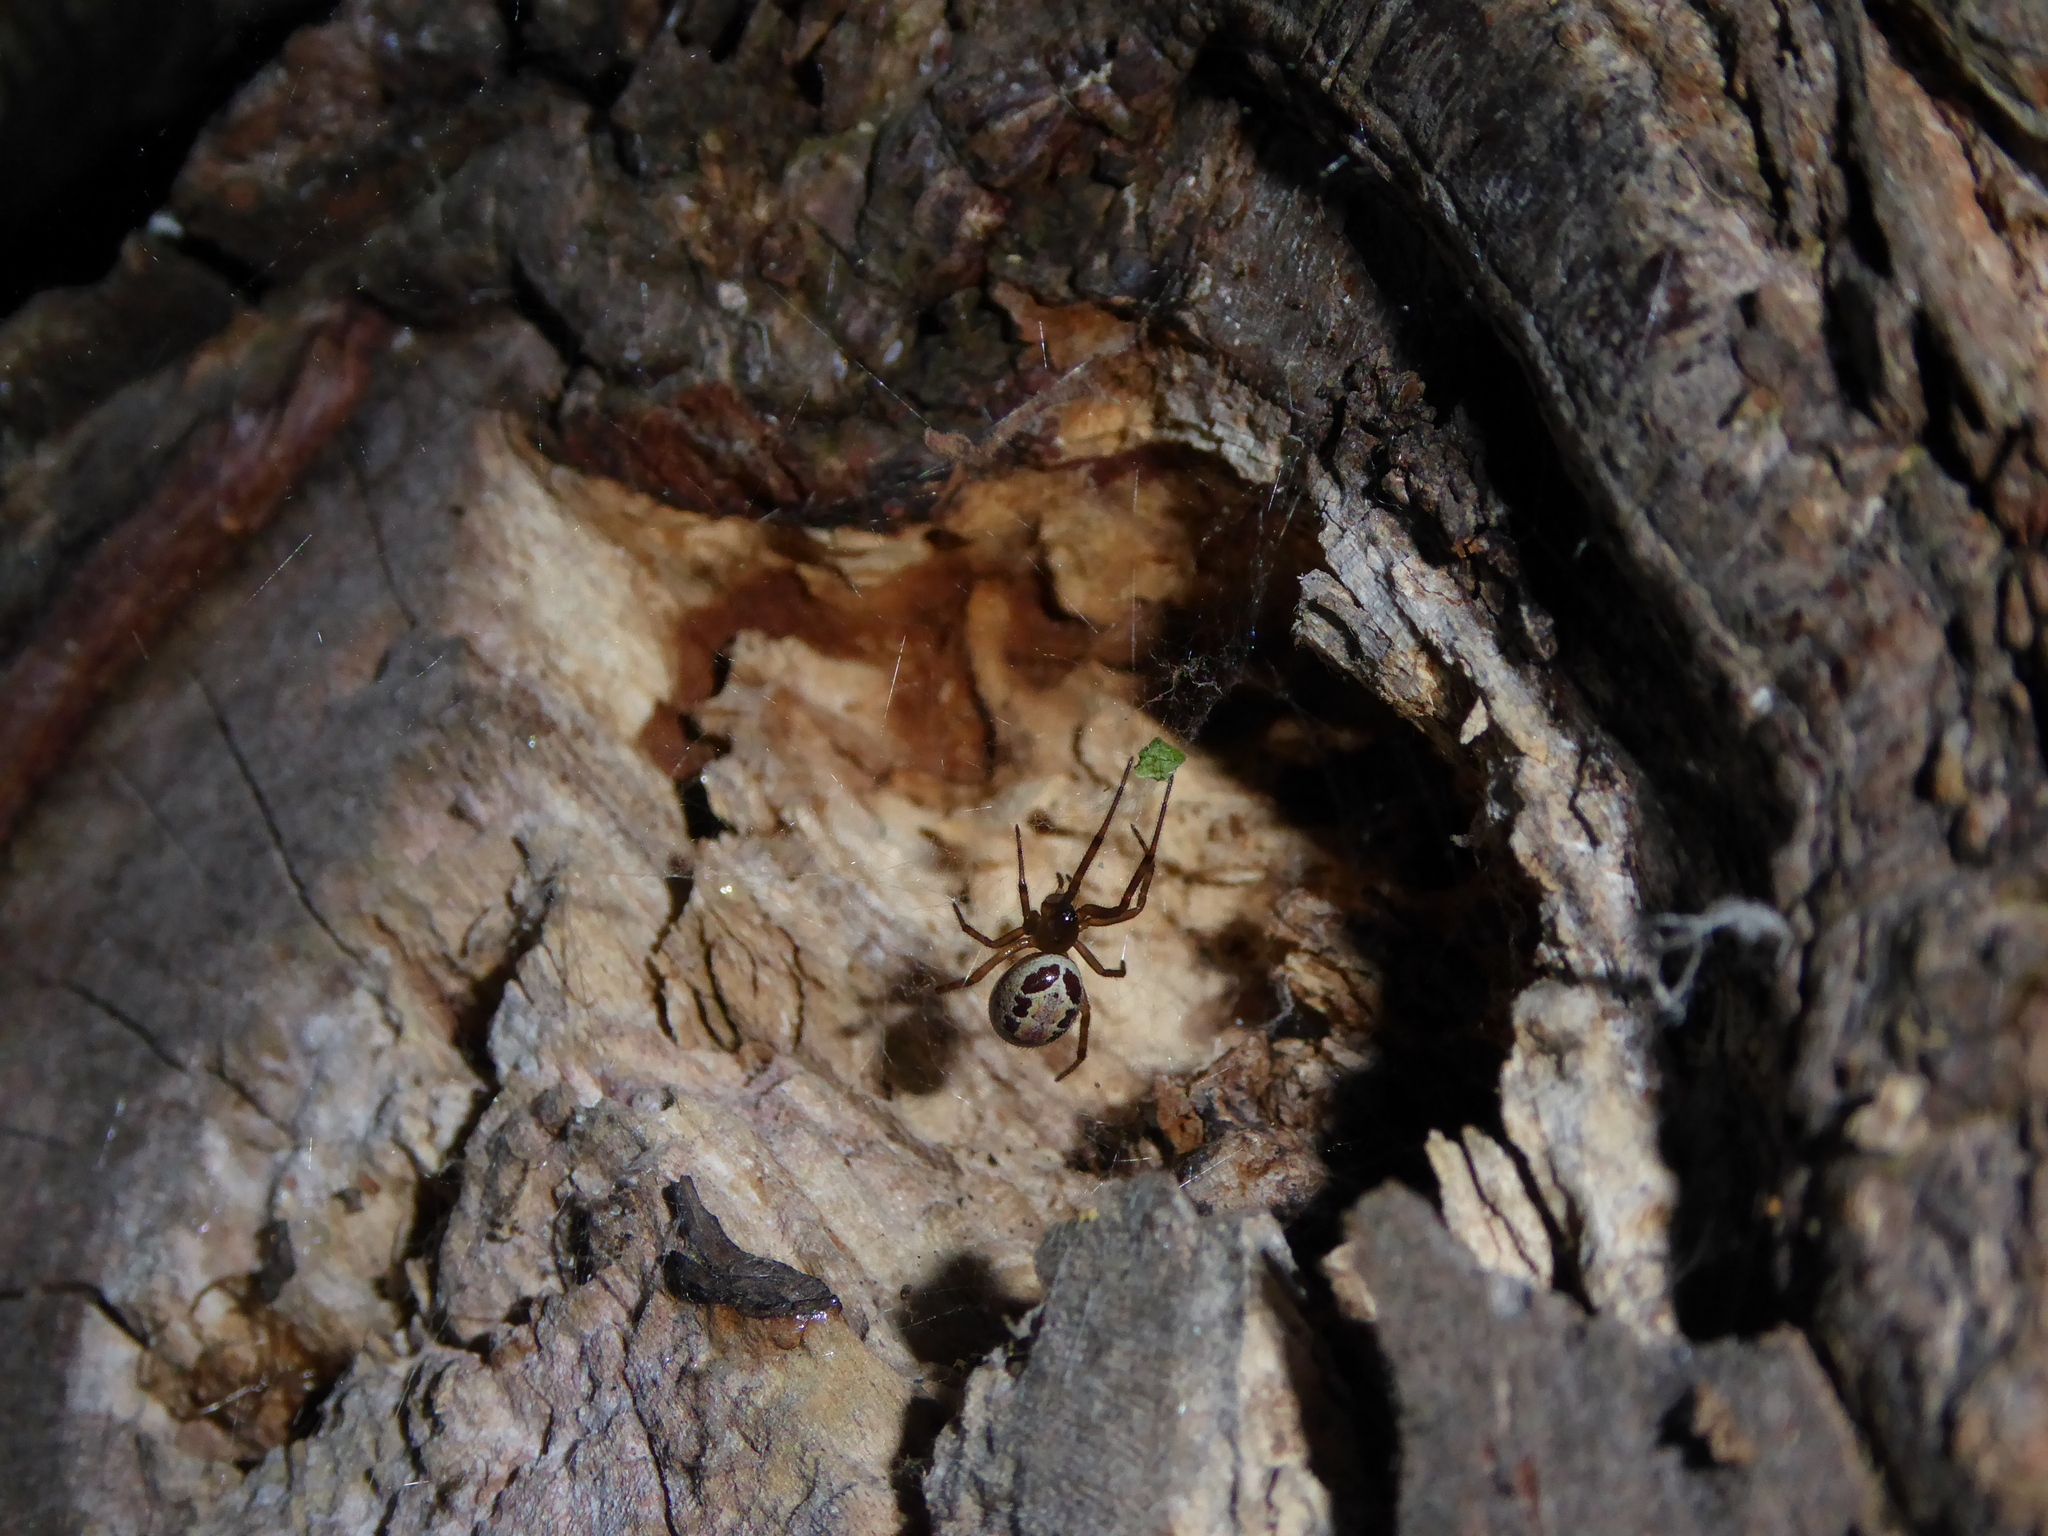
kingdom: Animalia
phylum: Arthropoda
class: Arachnida
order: Araneae
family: Theridiidae
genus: Steatoda
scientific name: Steatoda nobilis
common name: Cobweb weaver
